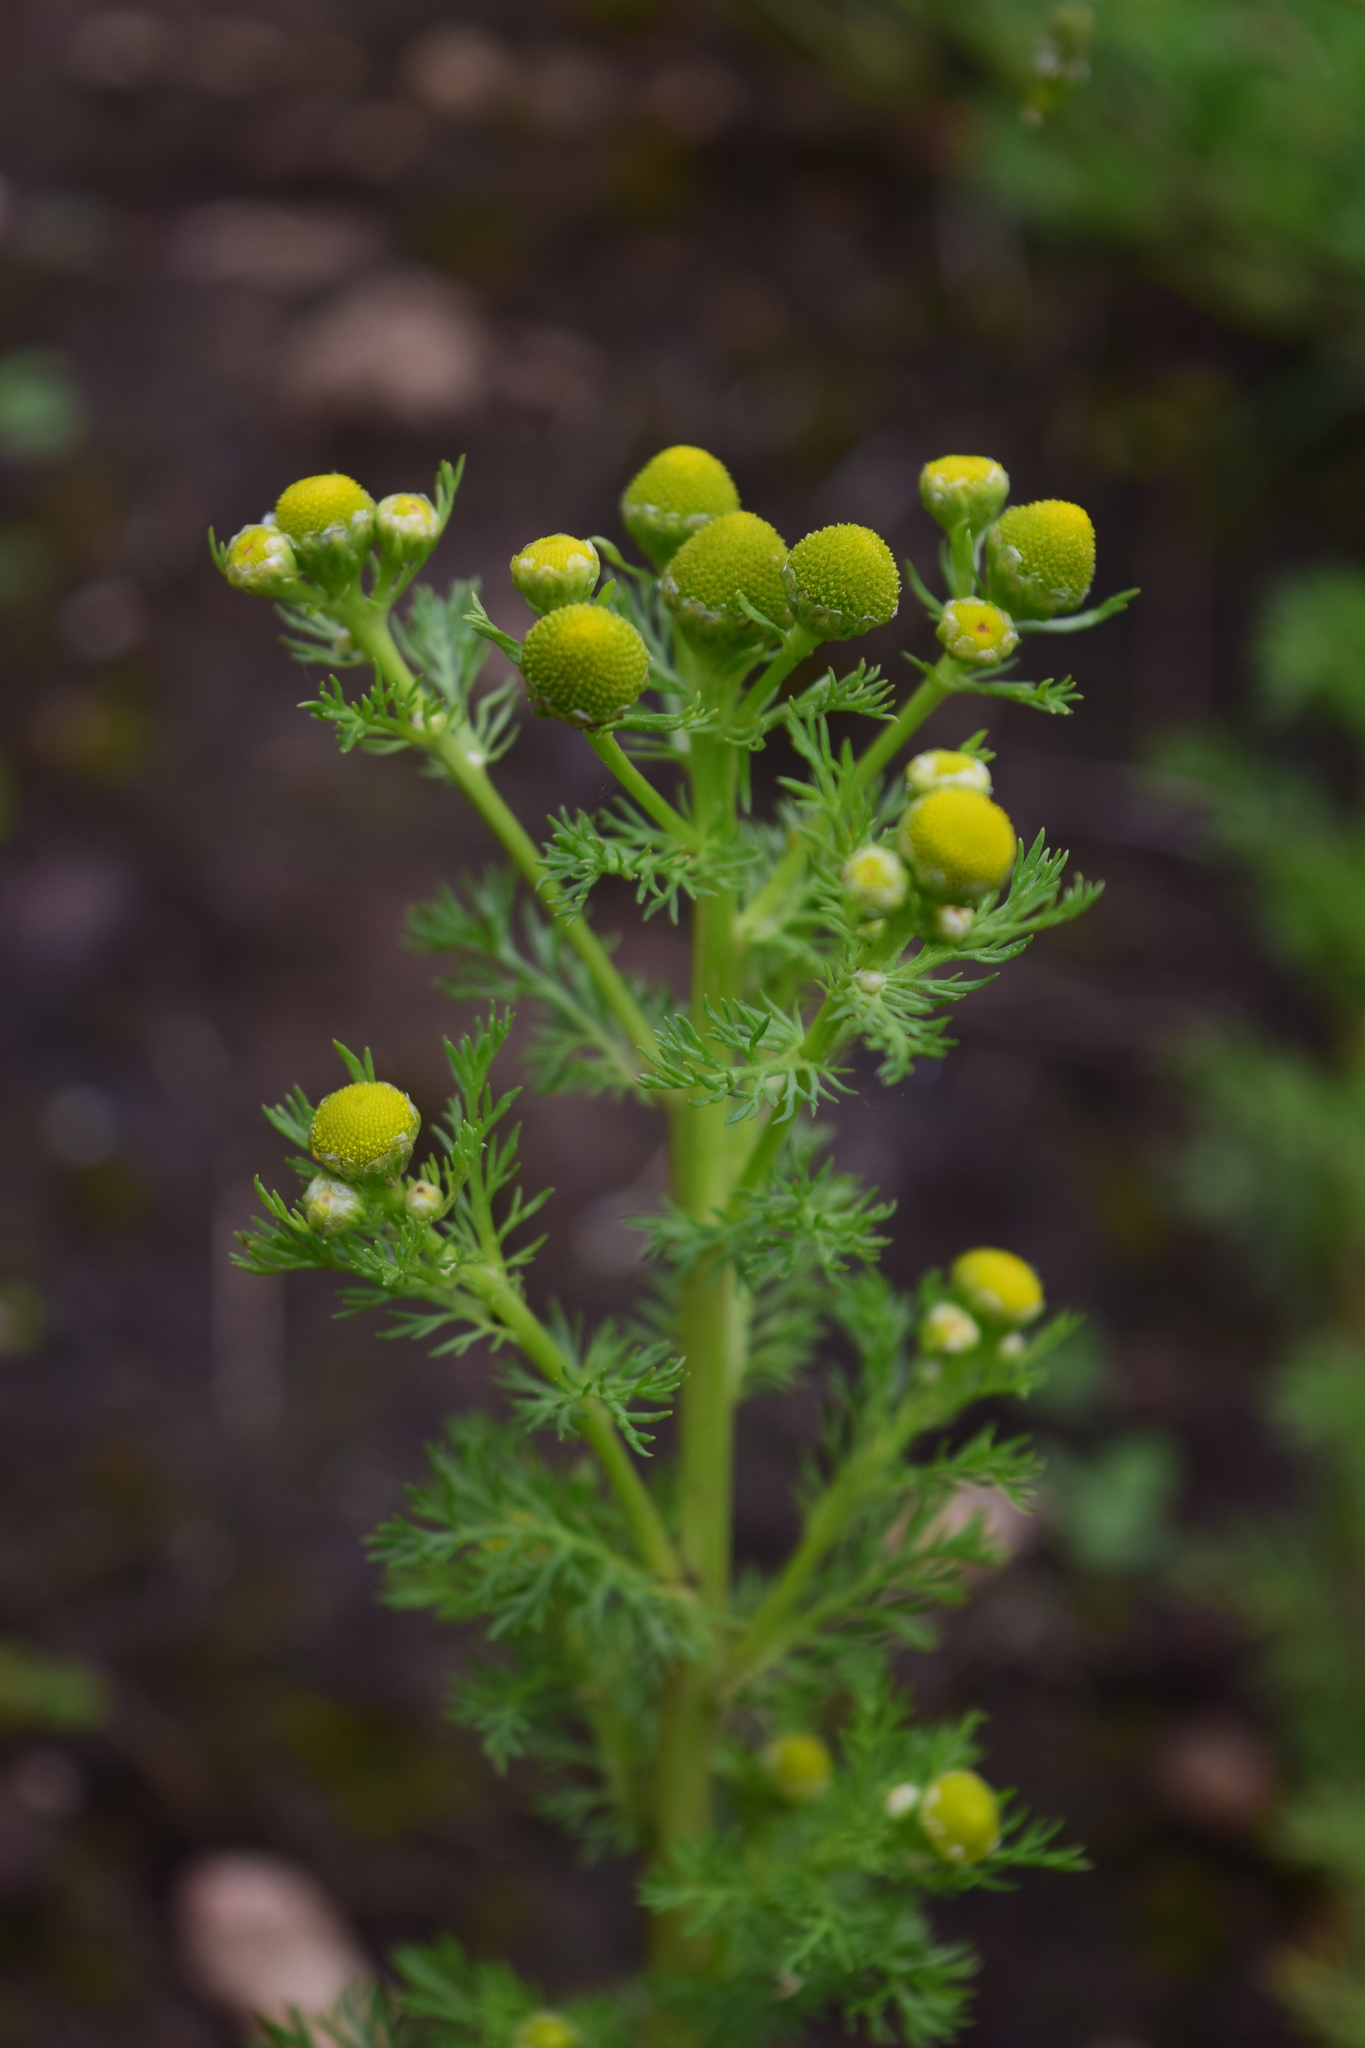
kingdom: Plantae
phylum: Tracheophyta
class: Magnoliopsida
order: Asterales
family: Asteraceae
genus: Matricaria
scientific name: Matricaria discoidea
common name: Disc mayweed
